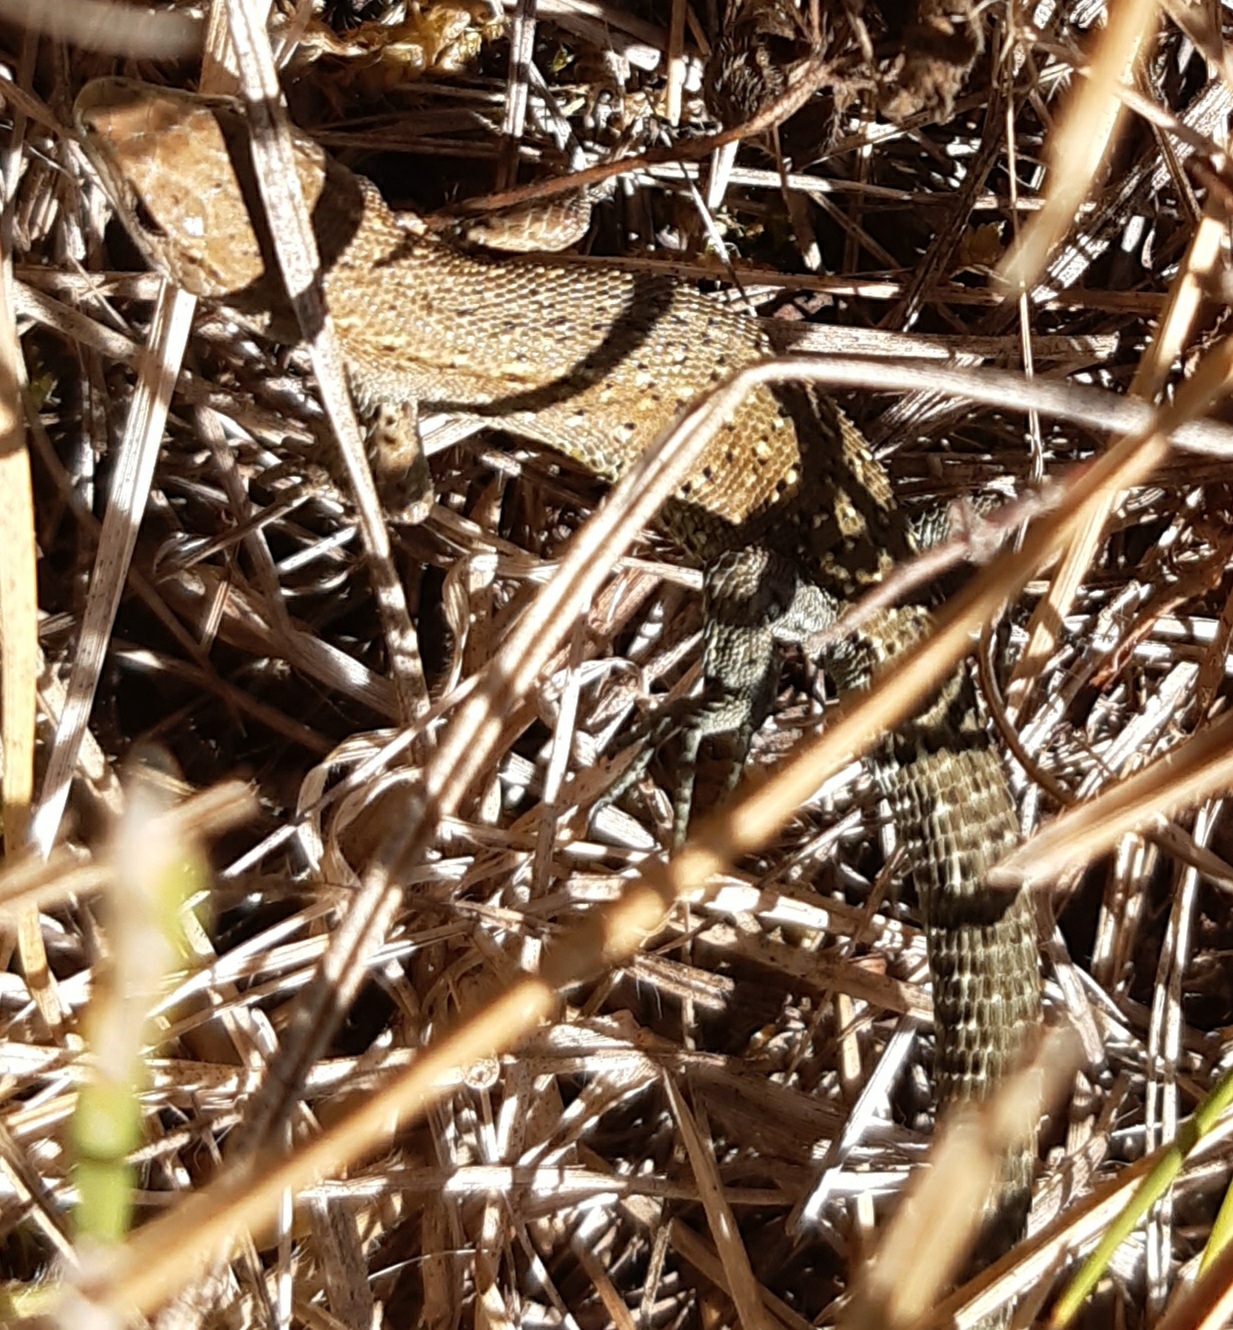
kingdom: Animalia
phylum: Chordata
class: Squamata
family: Lacertidae
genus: Zootoca
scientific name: Zootoca vivipara
